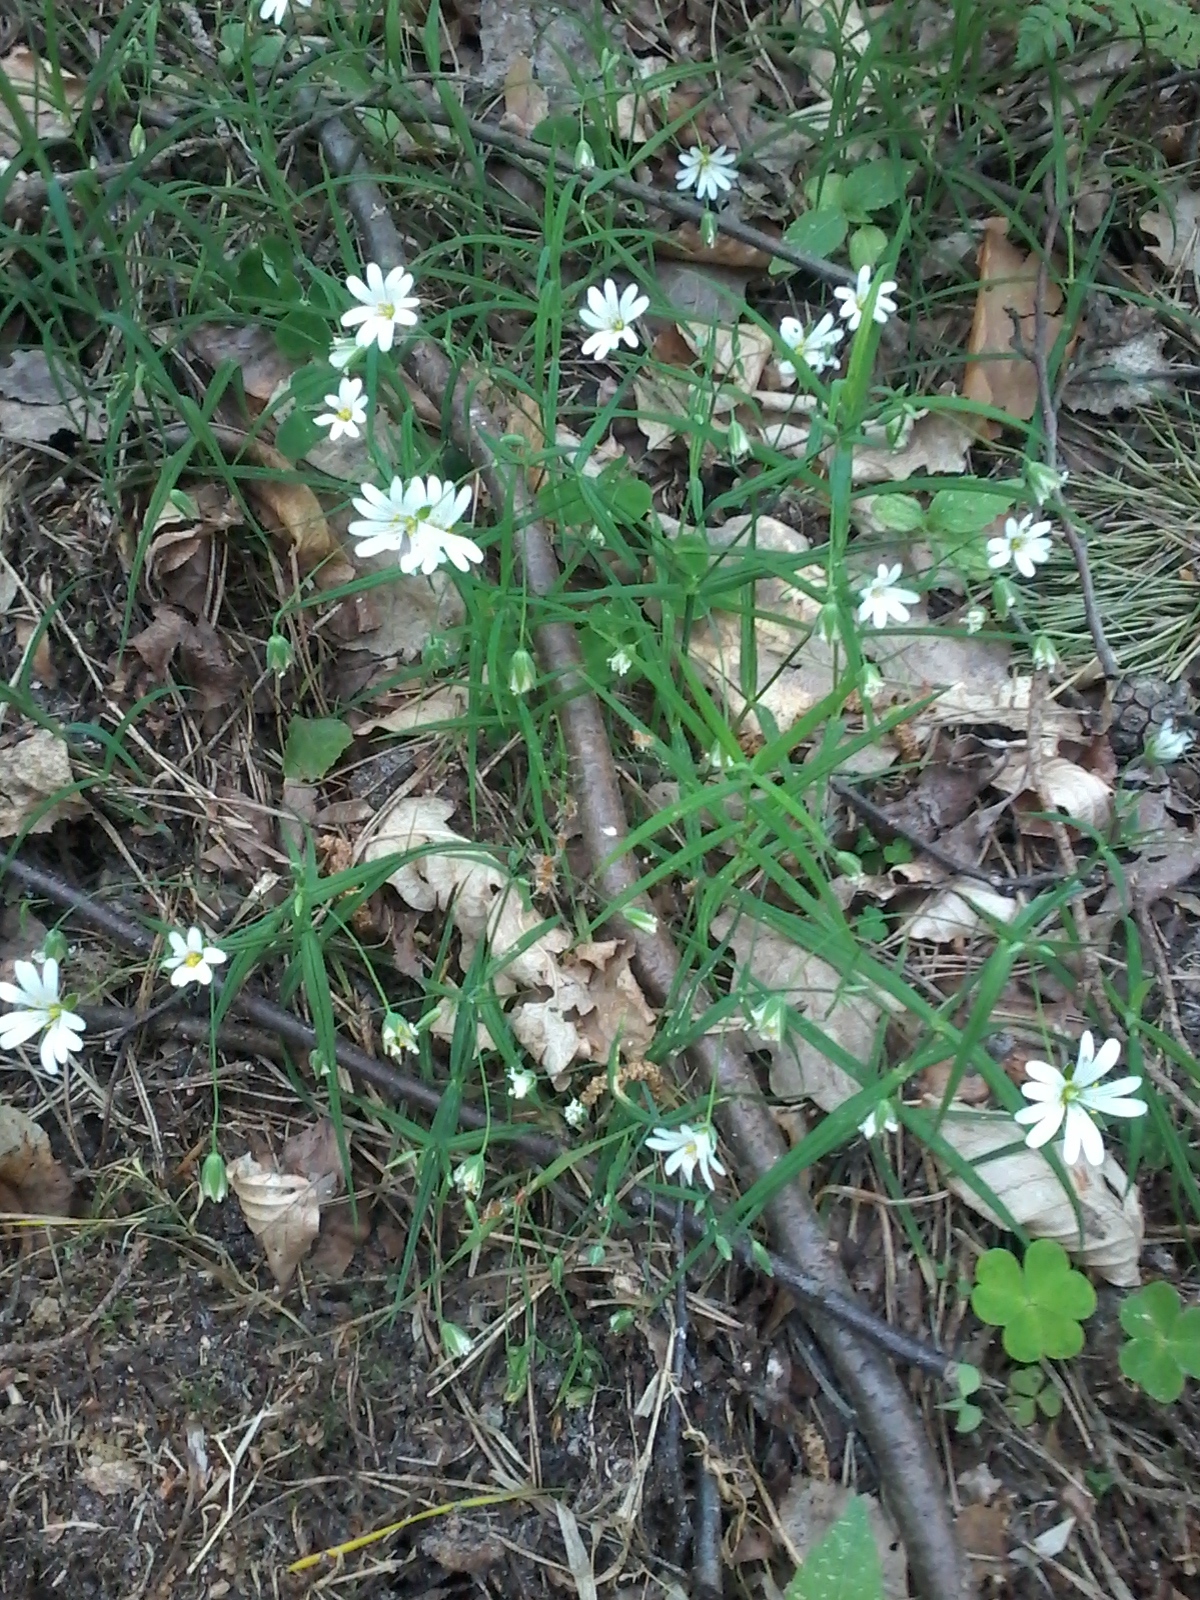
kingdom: Plantae
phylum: Tracheophyta
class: Magnoliopsida
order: Caryophyllales
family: Caryophyllaceae
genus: Rabelera
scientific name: Rabelera holostea
